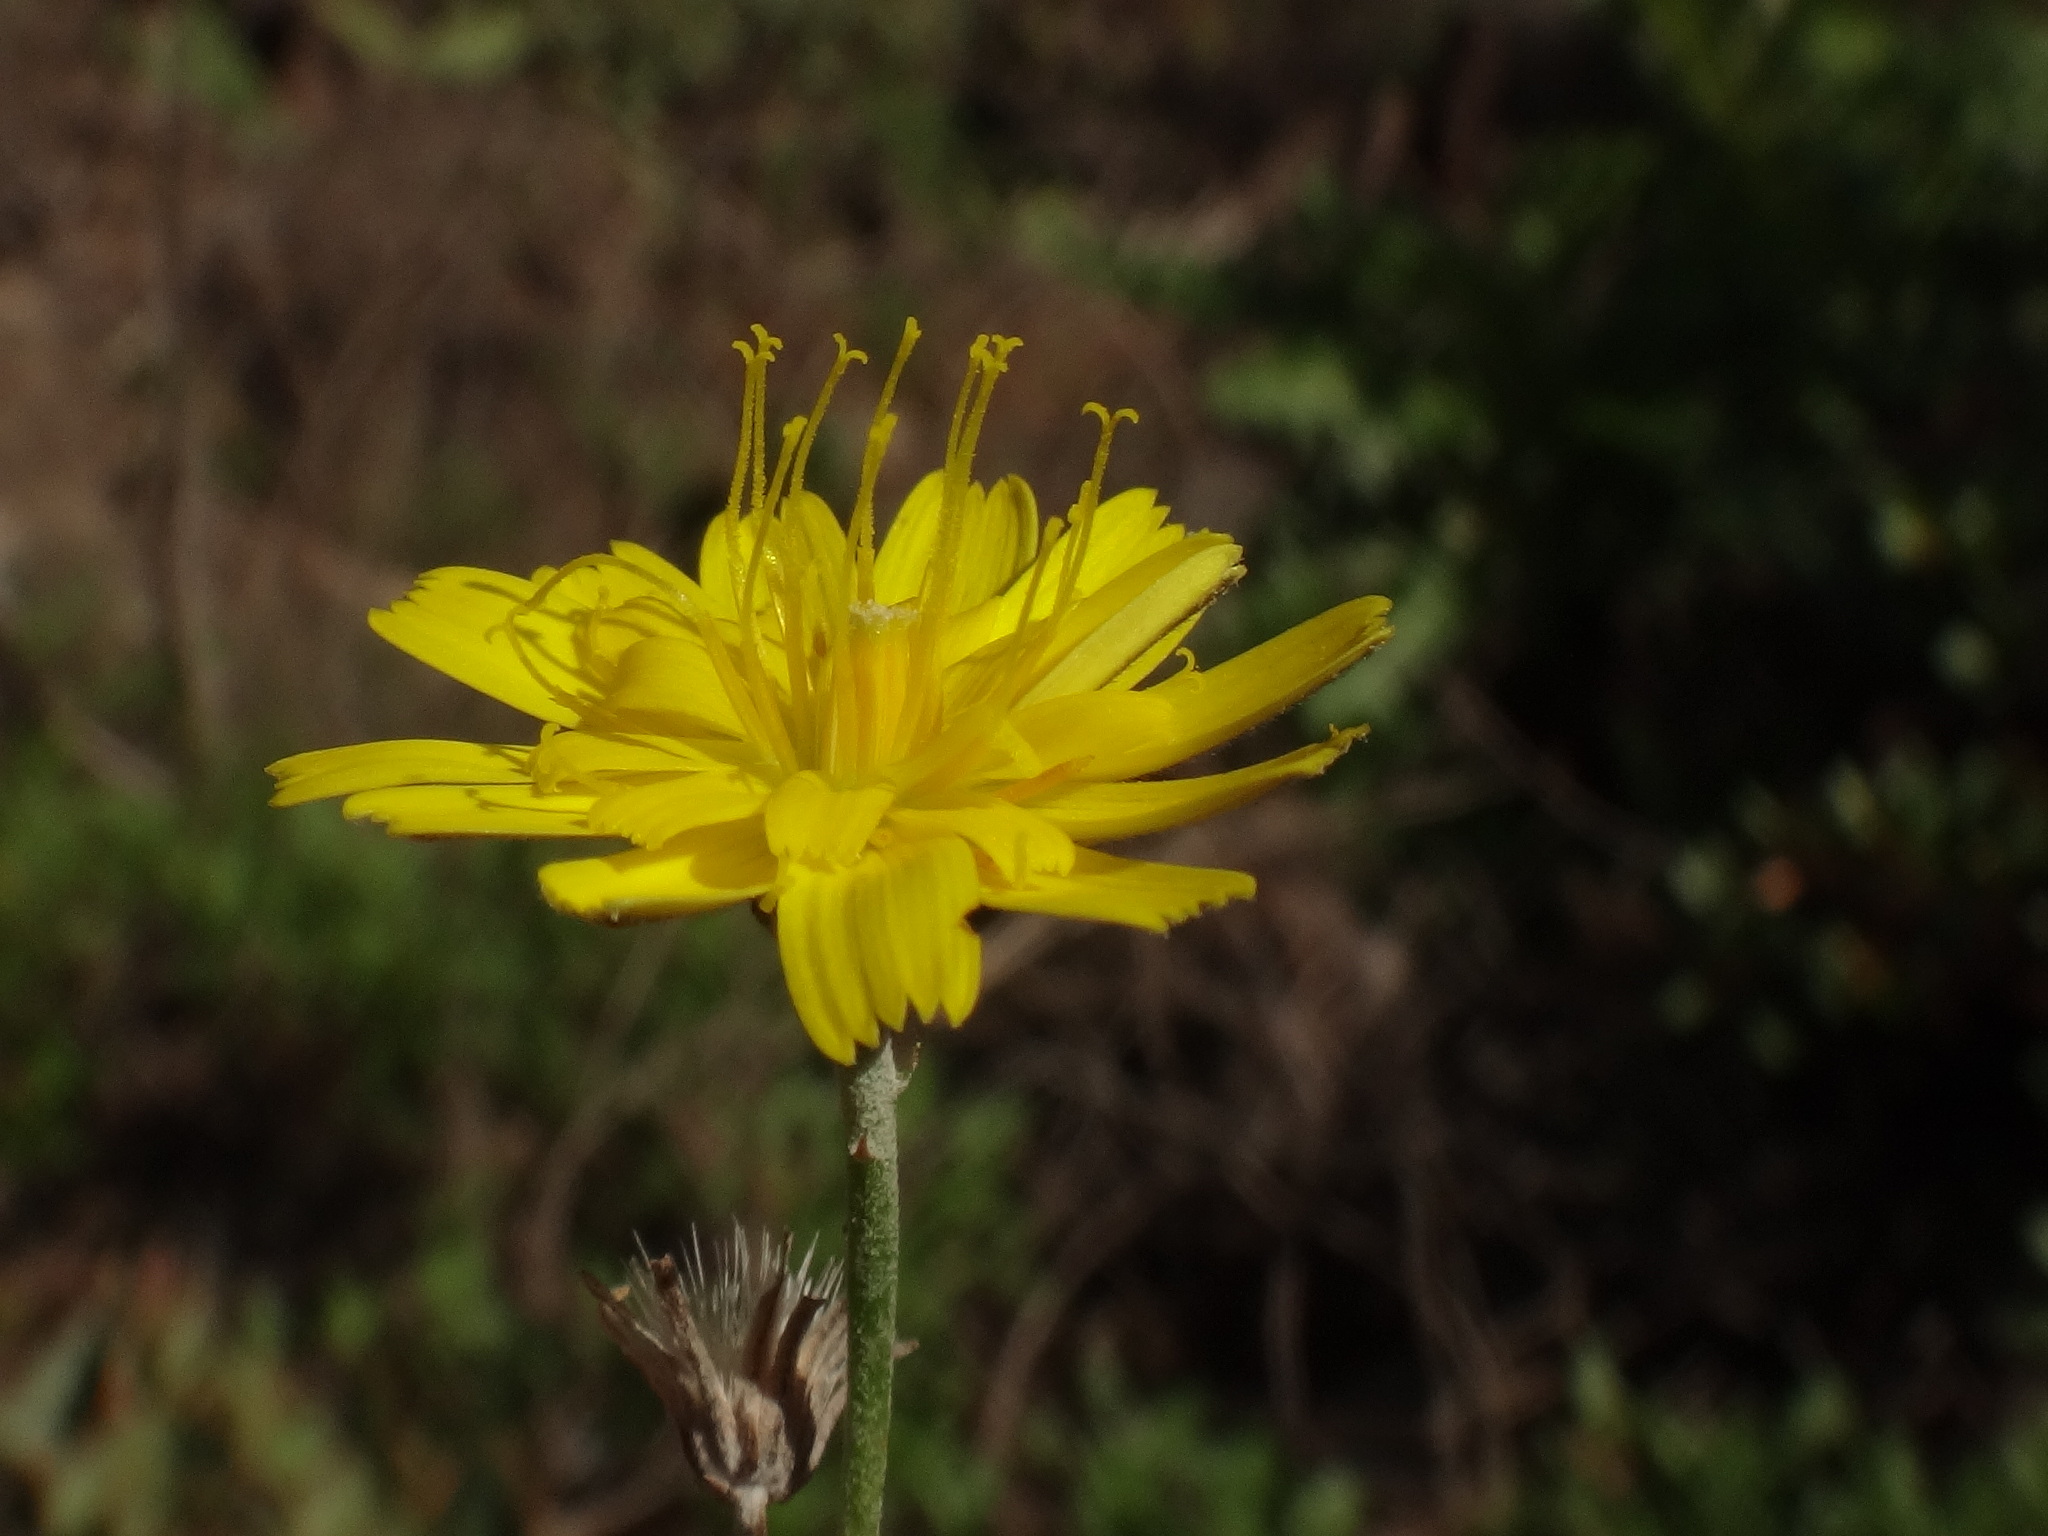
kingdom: Plantae
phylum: Tracheophyta
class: Magnoliopsida
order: Asterales
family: Asteraceae
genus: Tolpis
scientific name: Tolpis laciniata
